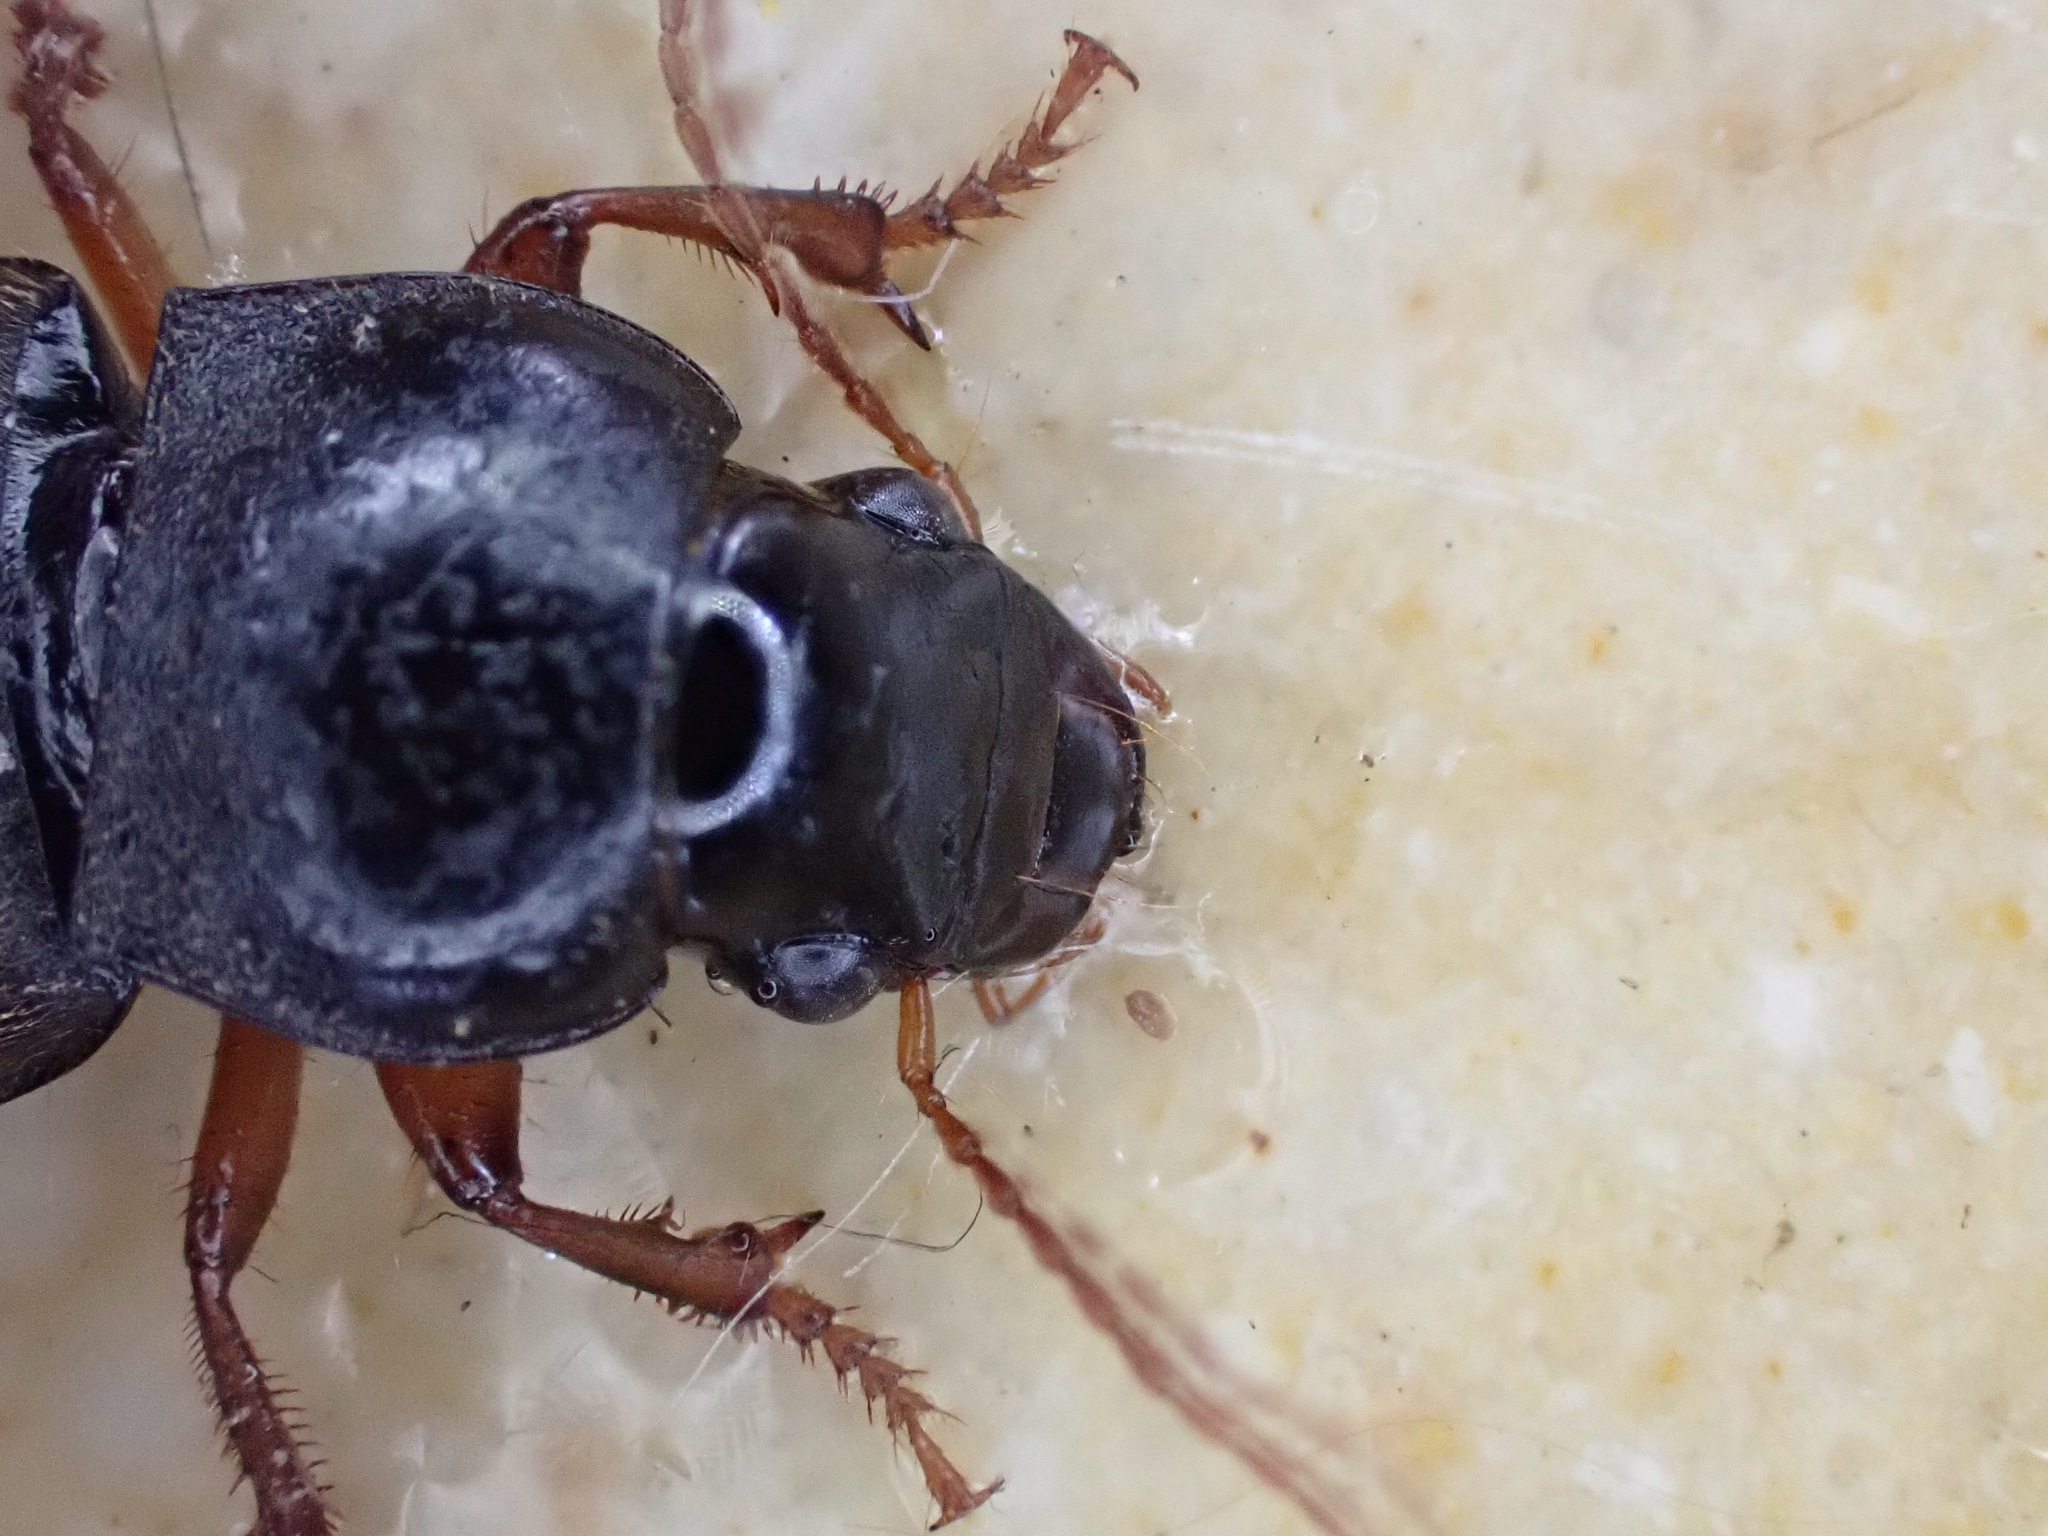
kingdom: Animalia
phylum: Arthropoda
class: Insecta
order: Coleoptera
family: Carabidae
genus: Harpalus
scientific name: Harpalus rufipes
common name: Strawberry harp ground beetle
